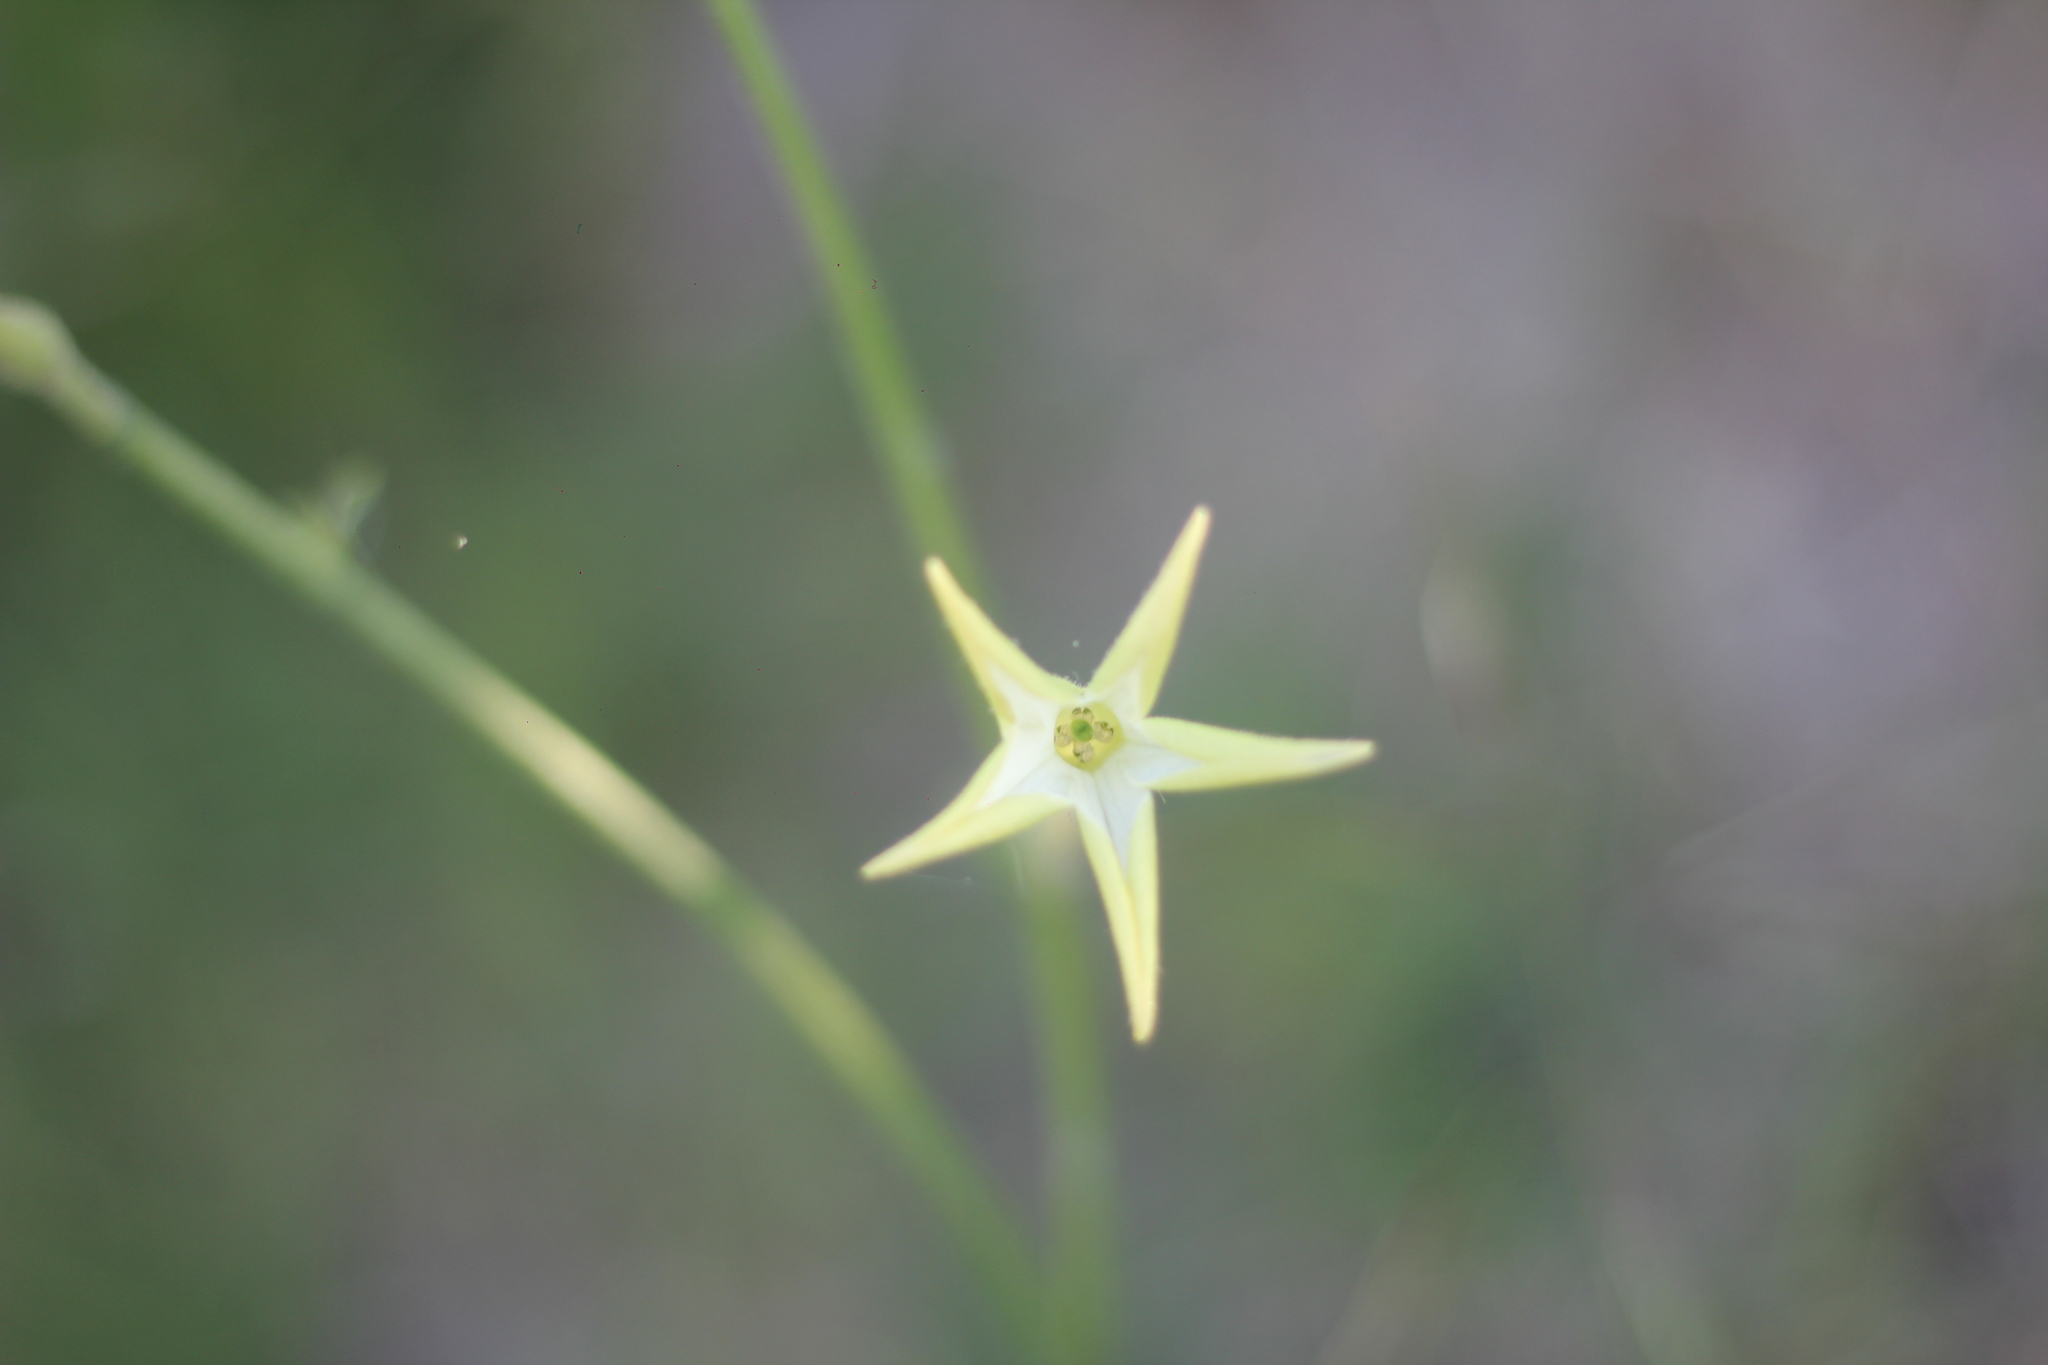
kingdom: Plantae
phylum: Tracheophyta
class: Magnoliopsida
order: Solanales
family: Solanaceae
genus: Nicotiana
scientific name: Nicotiana longiflora
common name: Long-flowered tobacco
